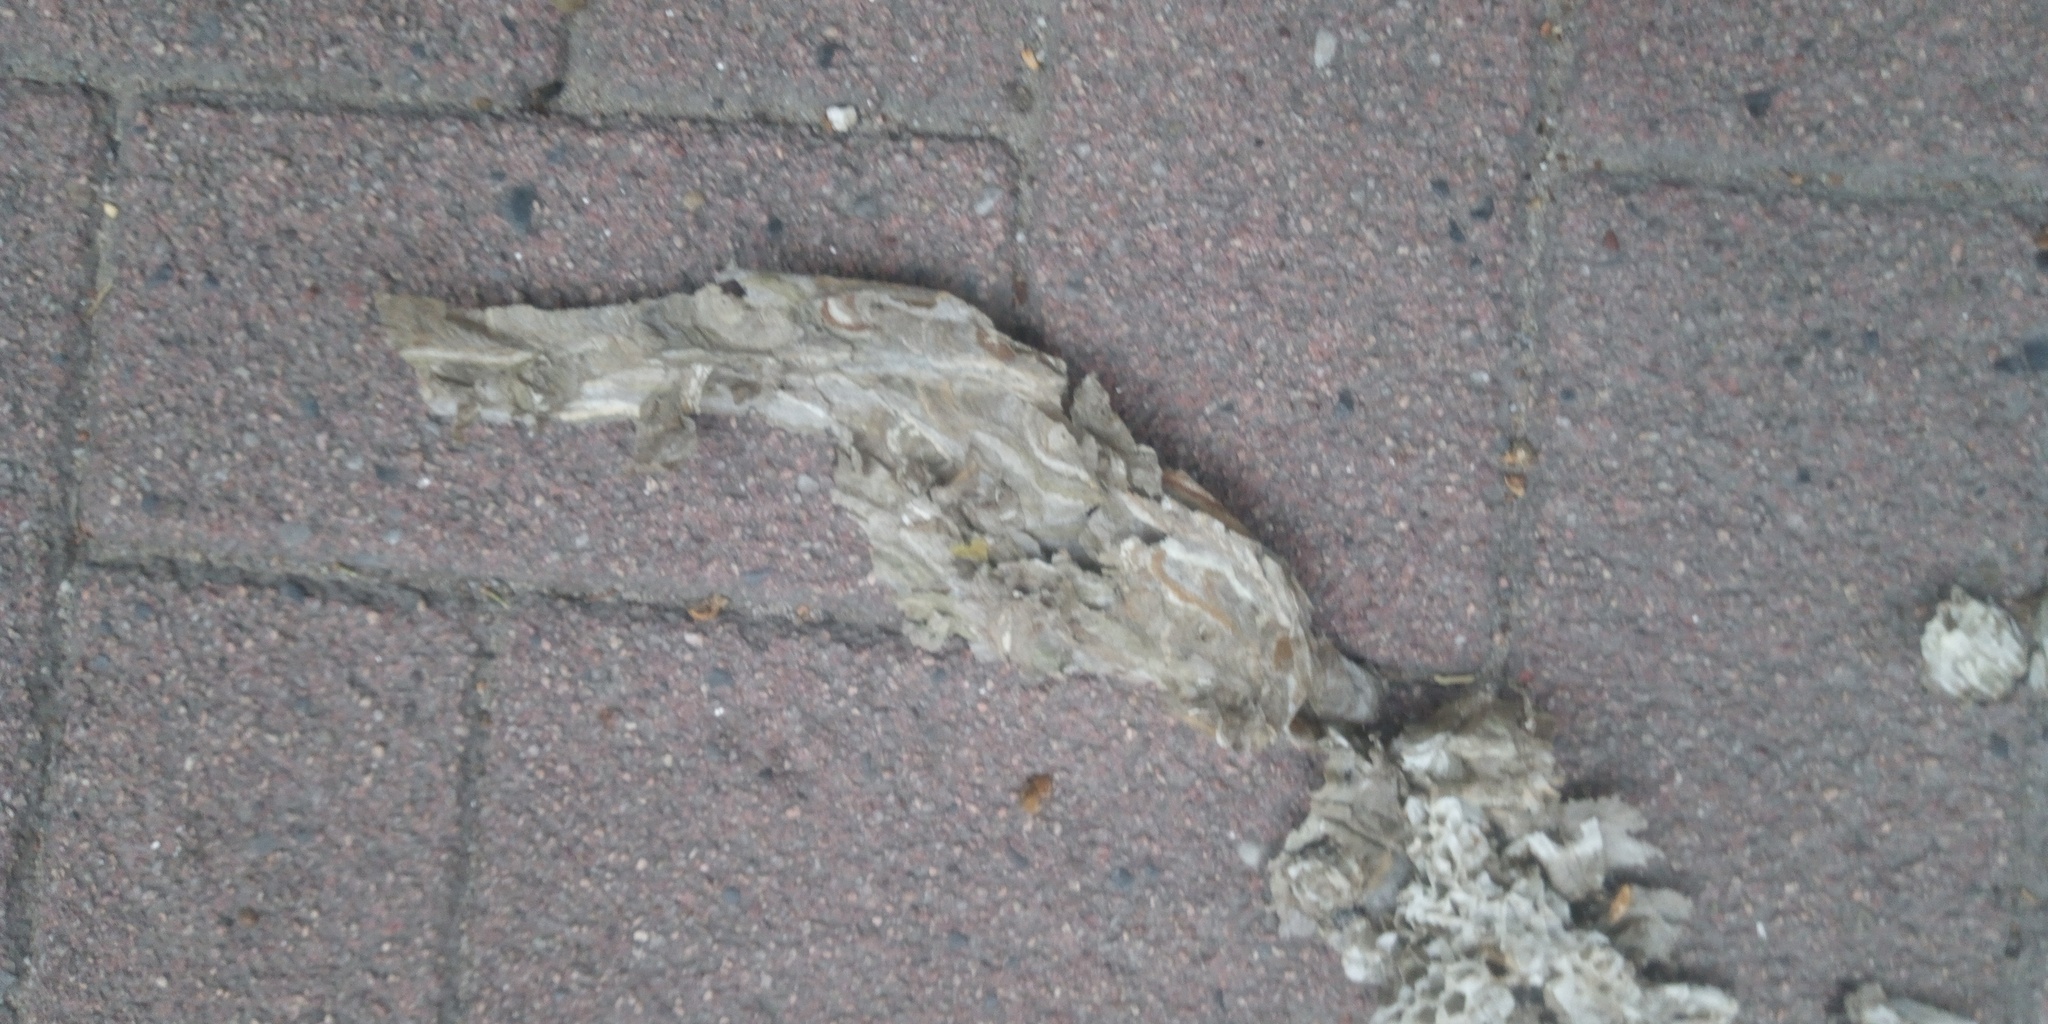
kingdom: Animalia
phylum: Arthropoda
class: Insecta
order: Hymenoptera
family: Vespidae
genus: Dolichovespula
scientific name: Dolichovespula media
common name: Median wasp
